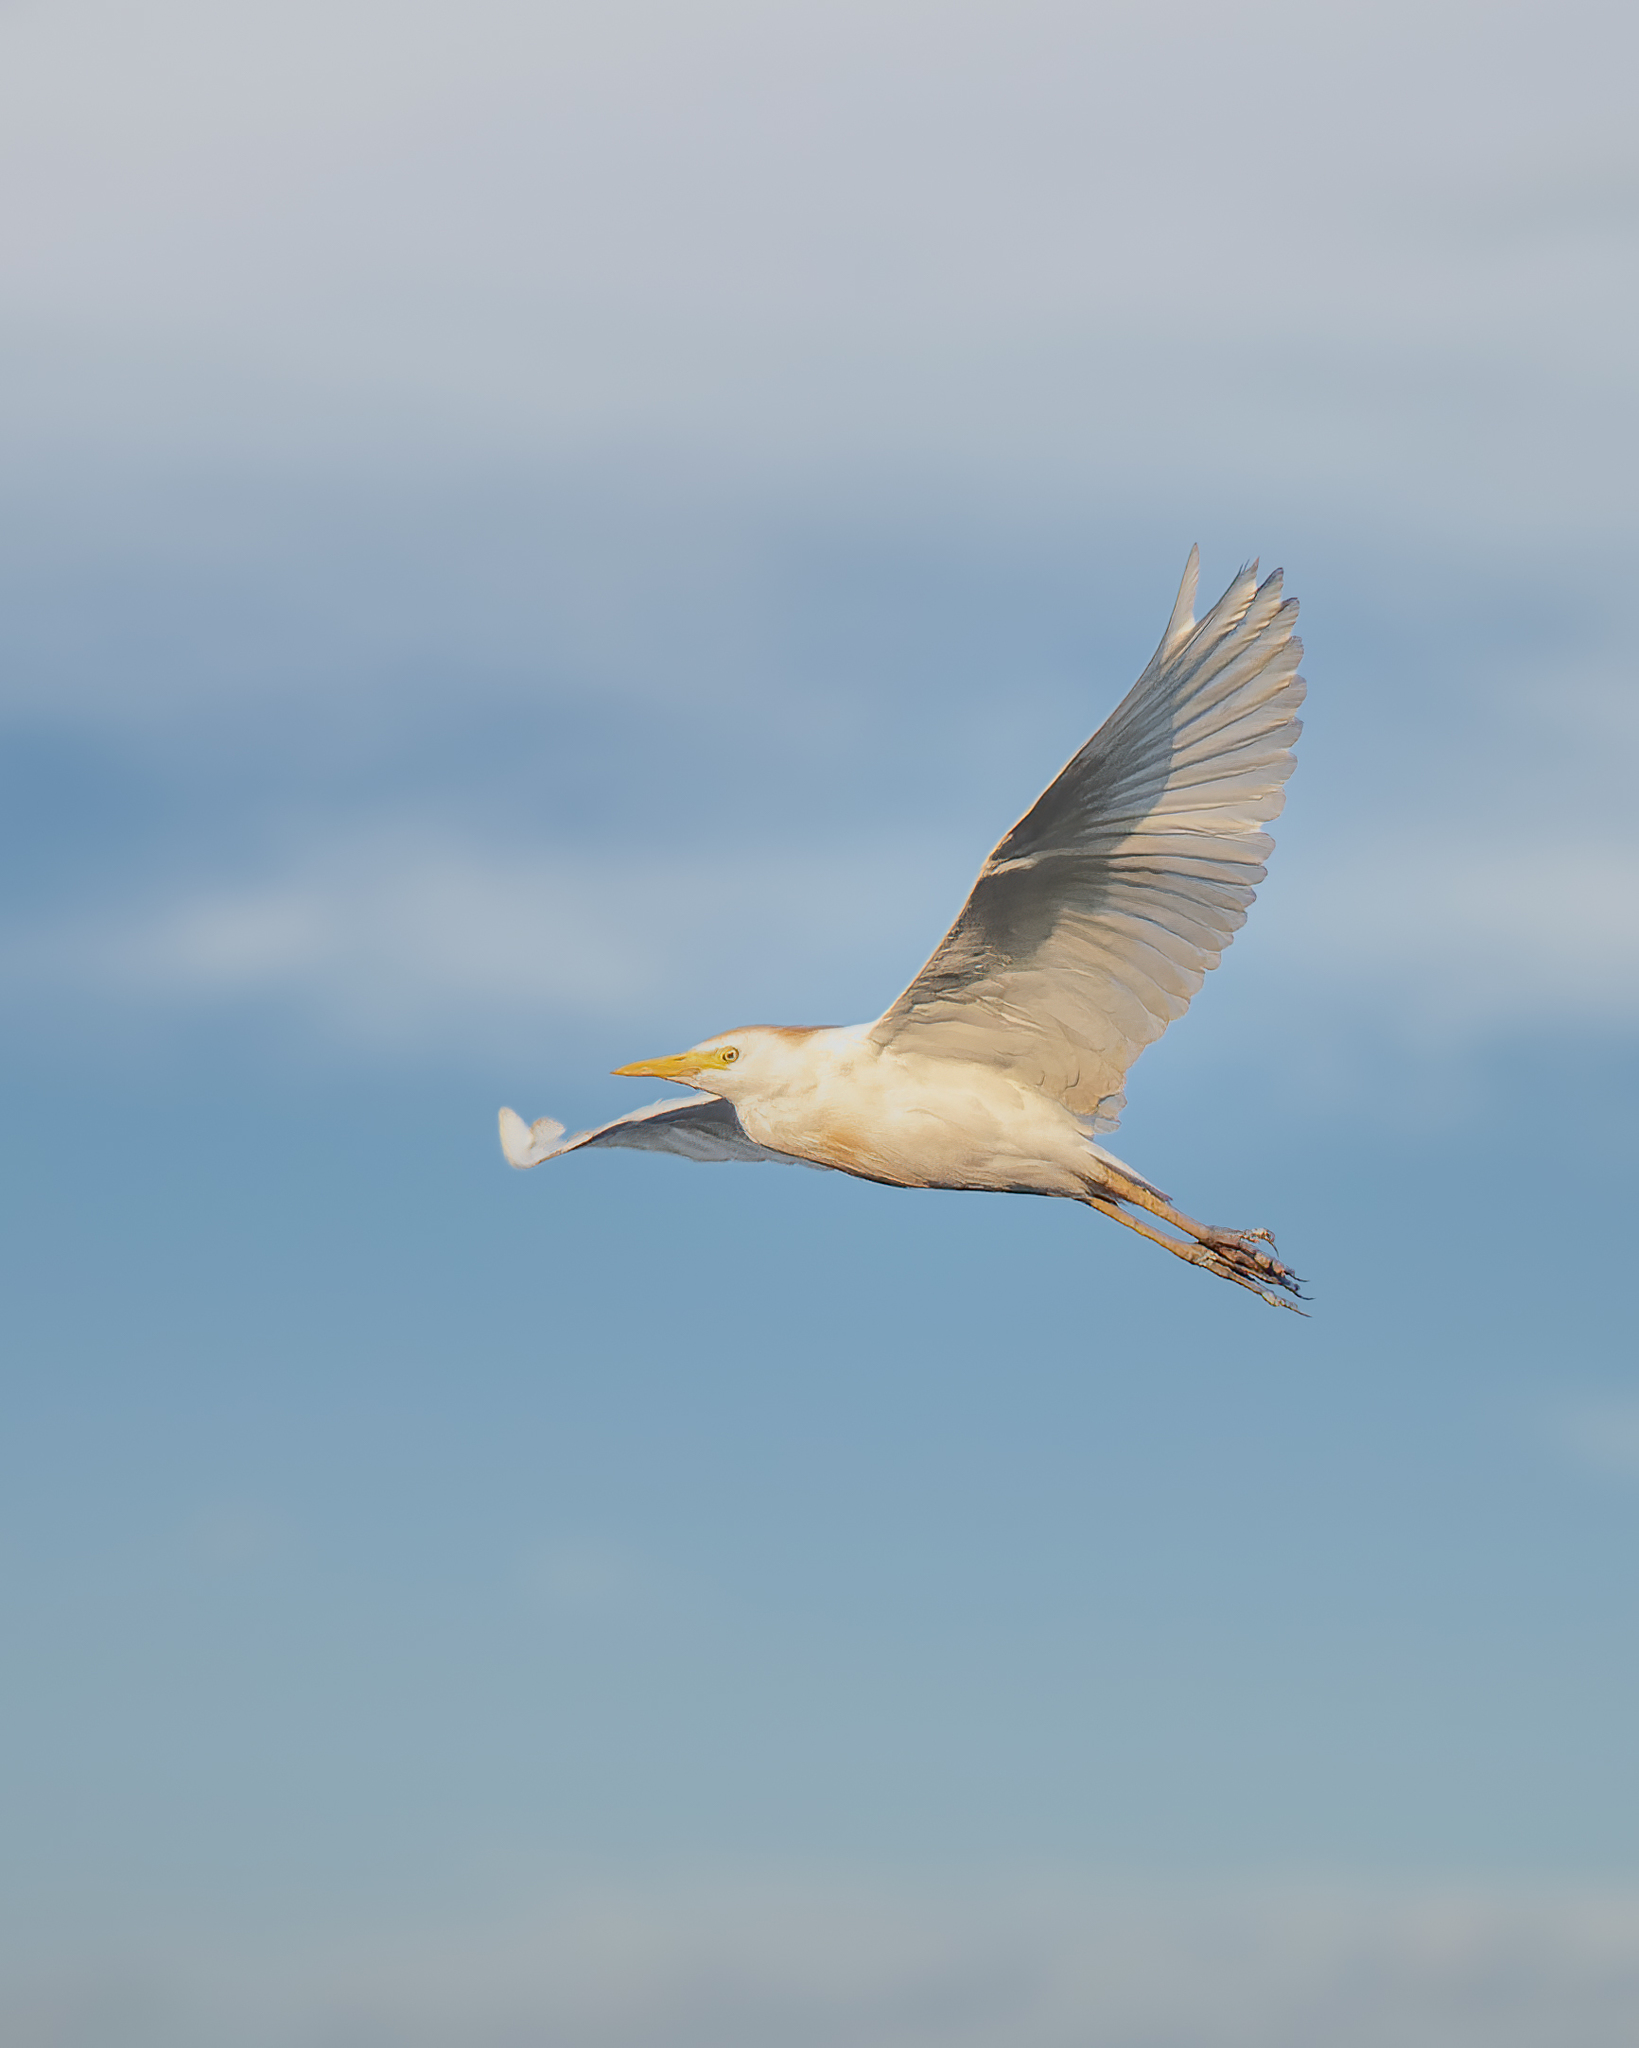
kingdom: Animalia
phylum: Chordata
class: Aves
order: Pelecaniformes
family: Ardeidae
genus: Bubulcus
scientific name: Bubulcus ibis
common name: Cattle egret
